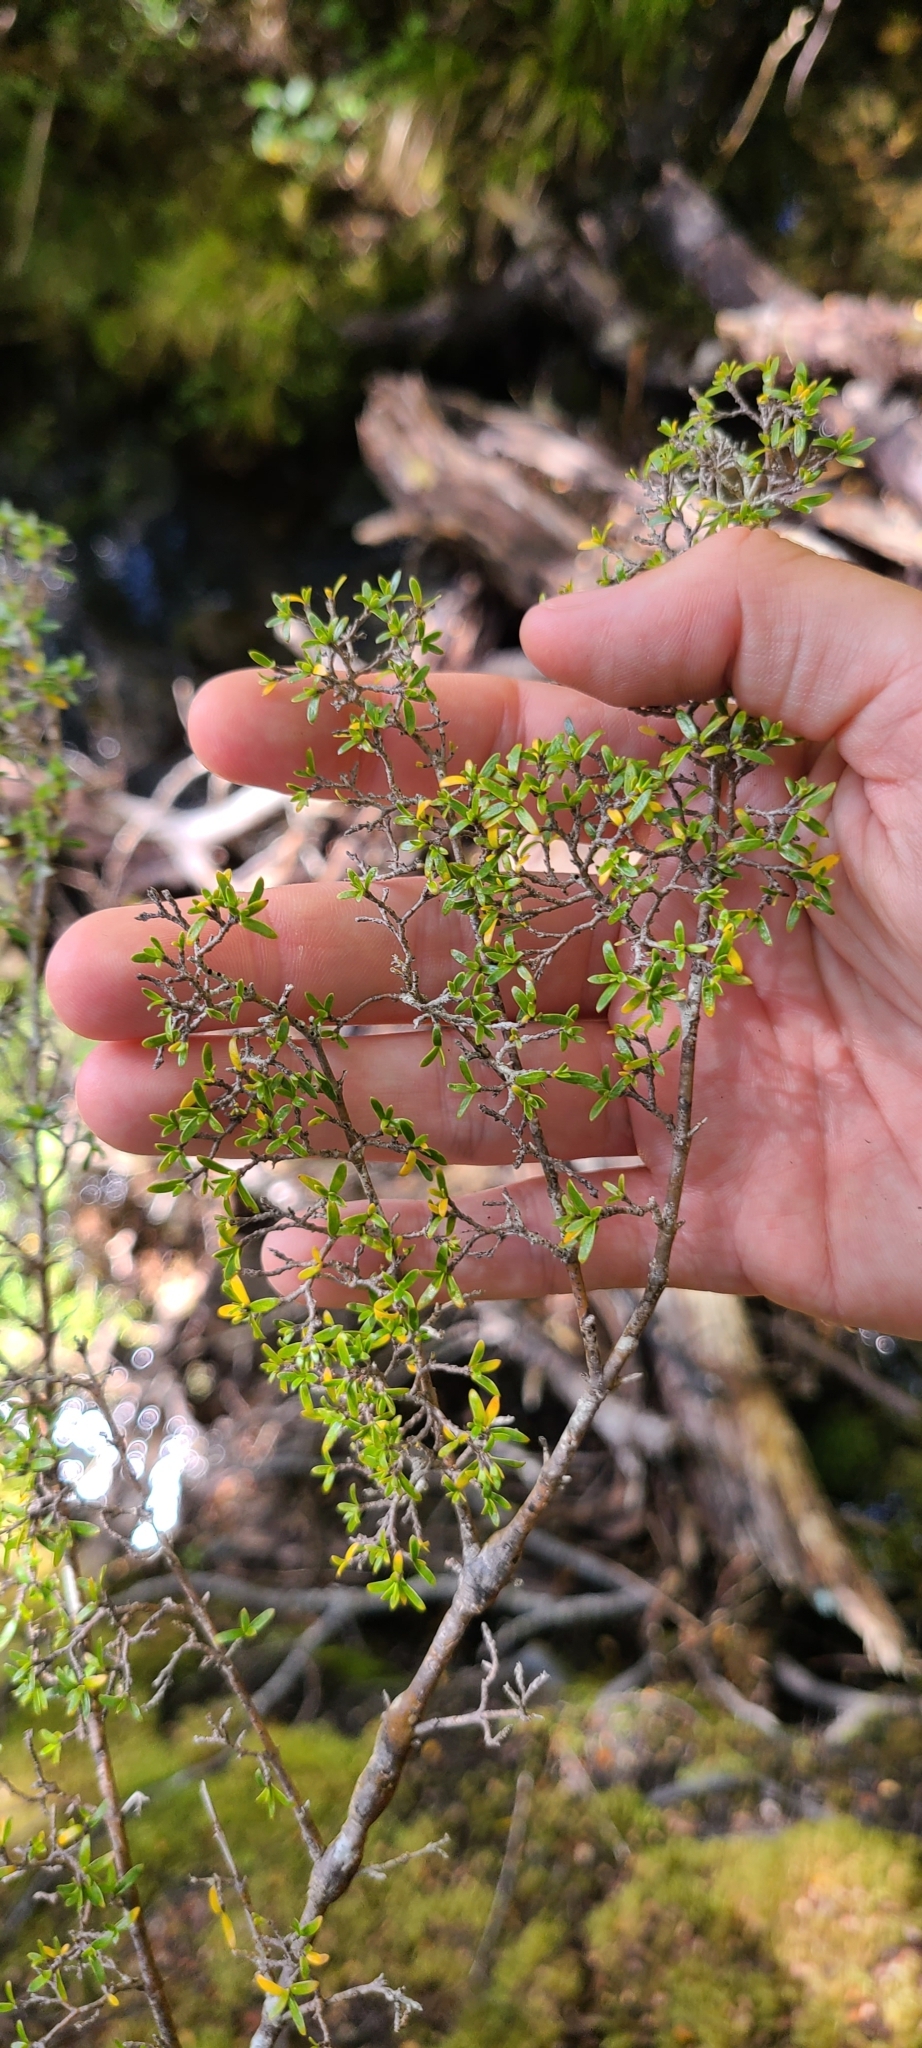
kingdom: Plantae
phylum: Tracheophyta
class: Magnoliopsida
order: Gentianales
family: Rubiaceae
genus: Coprosma
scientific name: Coprosma microcarpa
